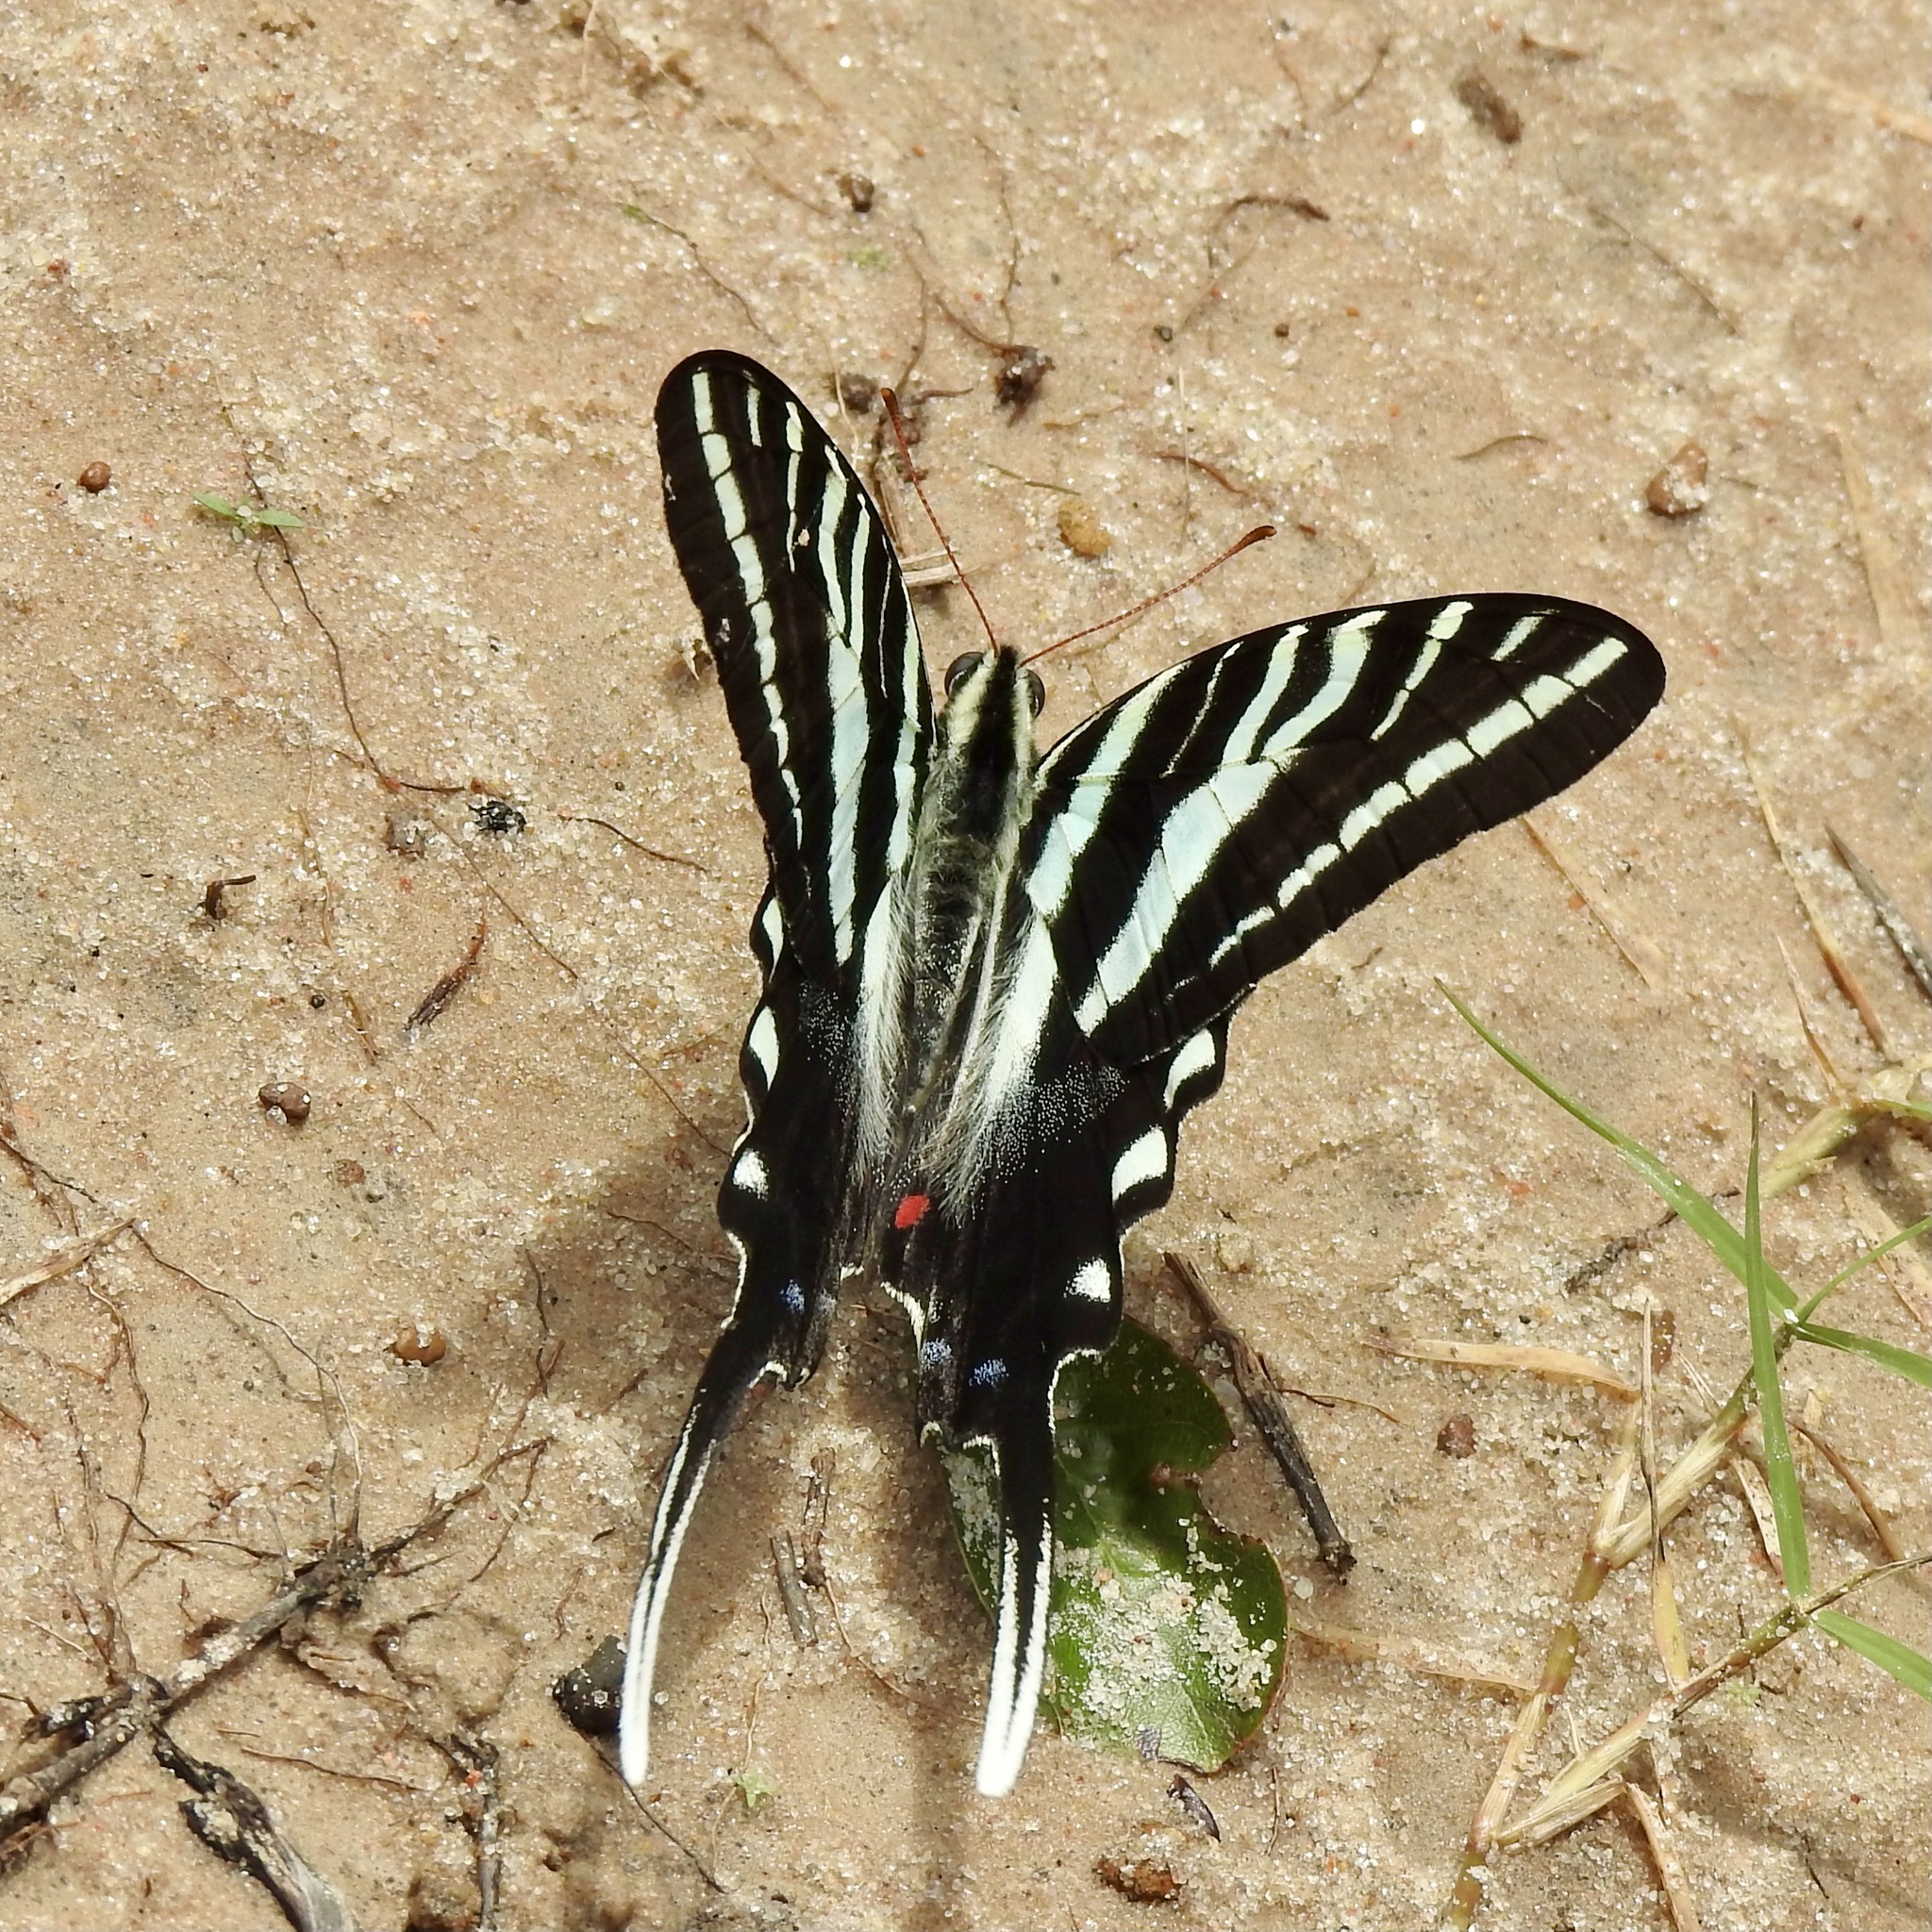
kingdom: Animalia
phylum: Arthropoda
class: Insecta
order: Lepidoptera
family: Papilionidae
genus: Protographium
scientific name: Protographium marcellus
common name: Zebra swallowtail
